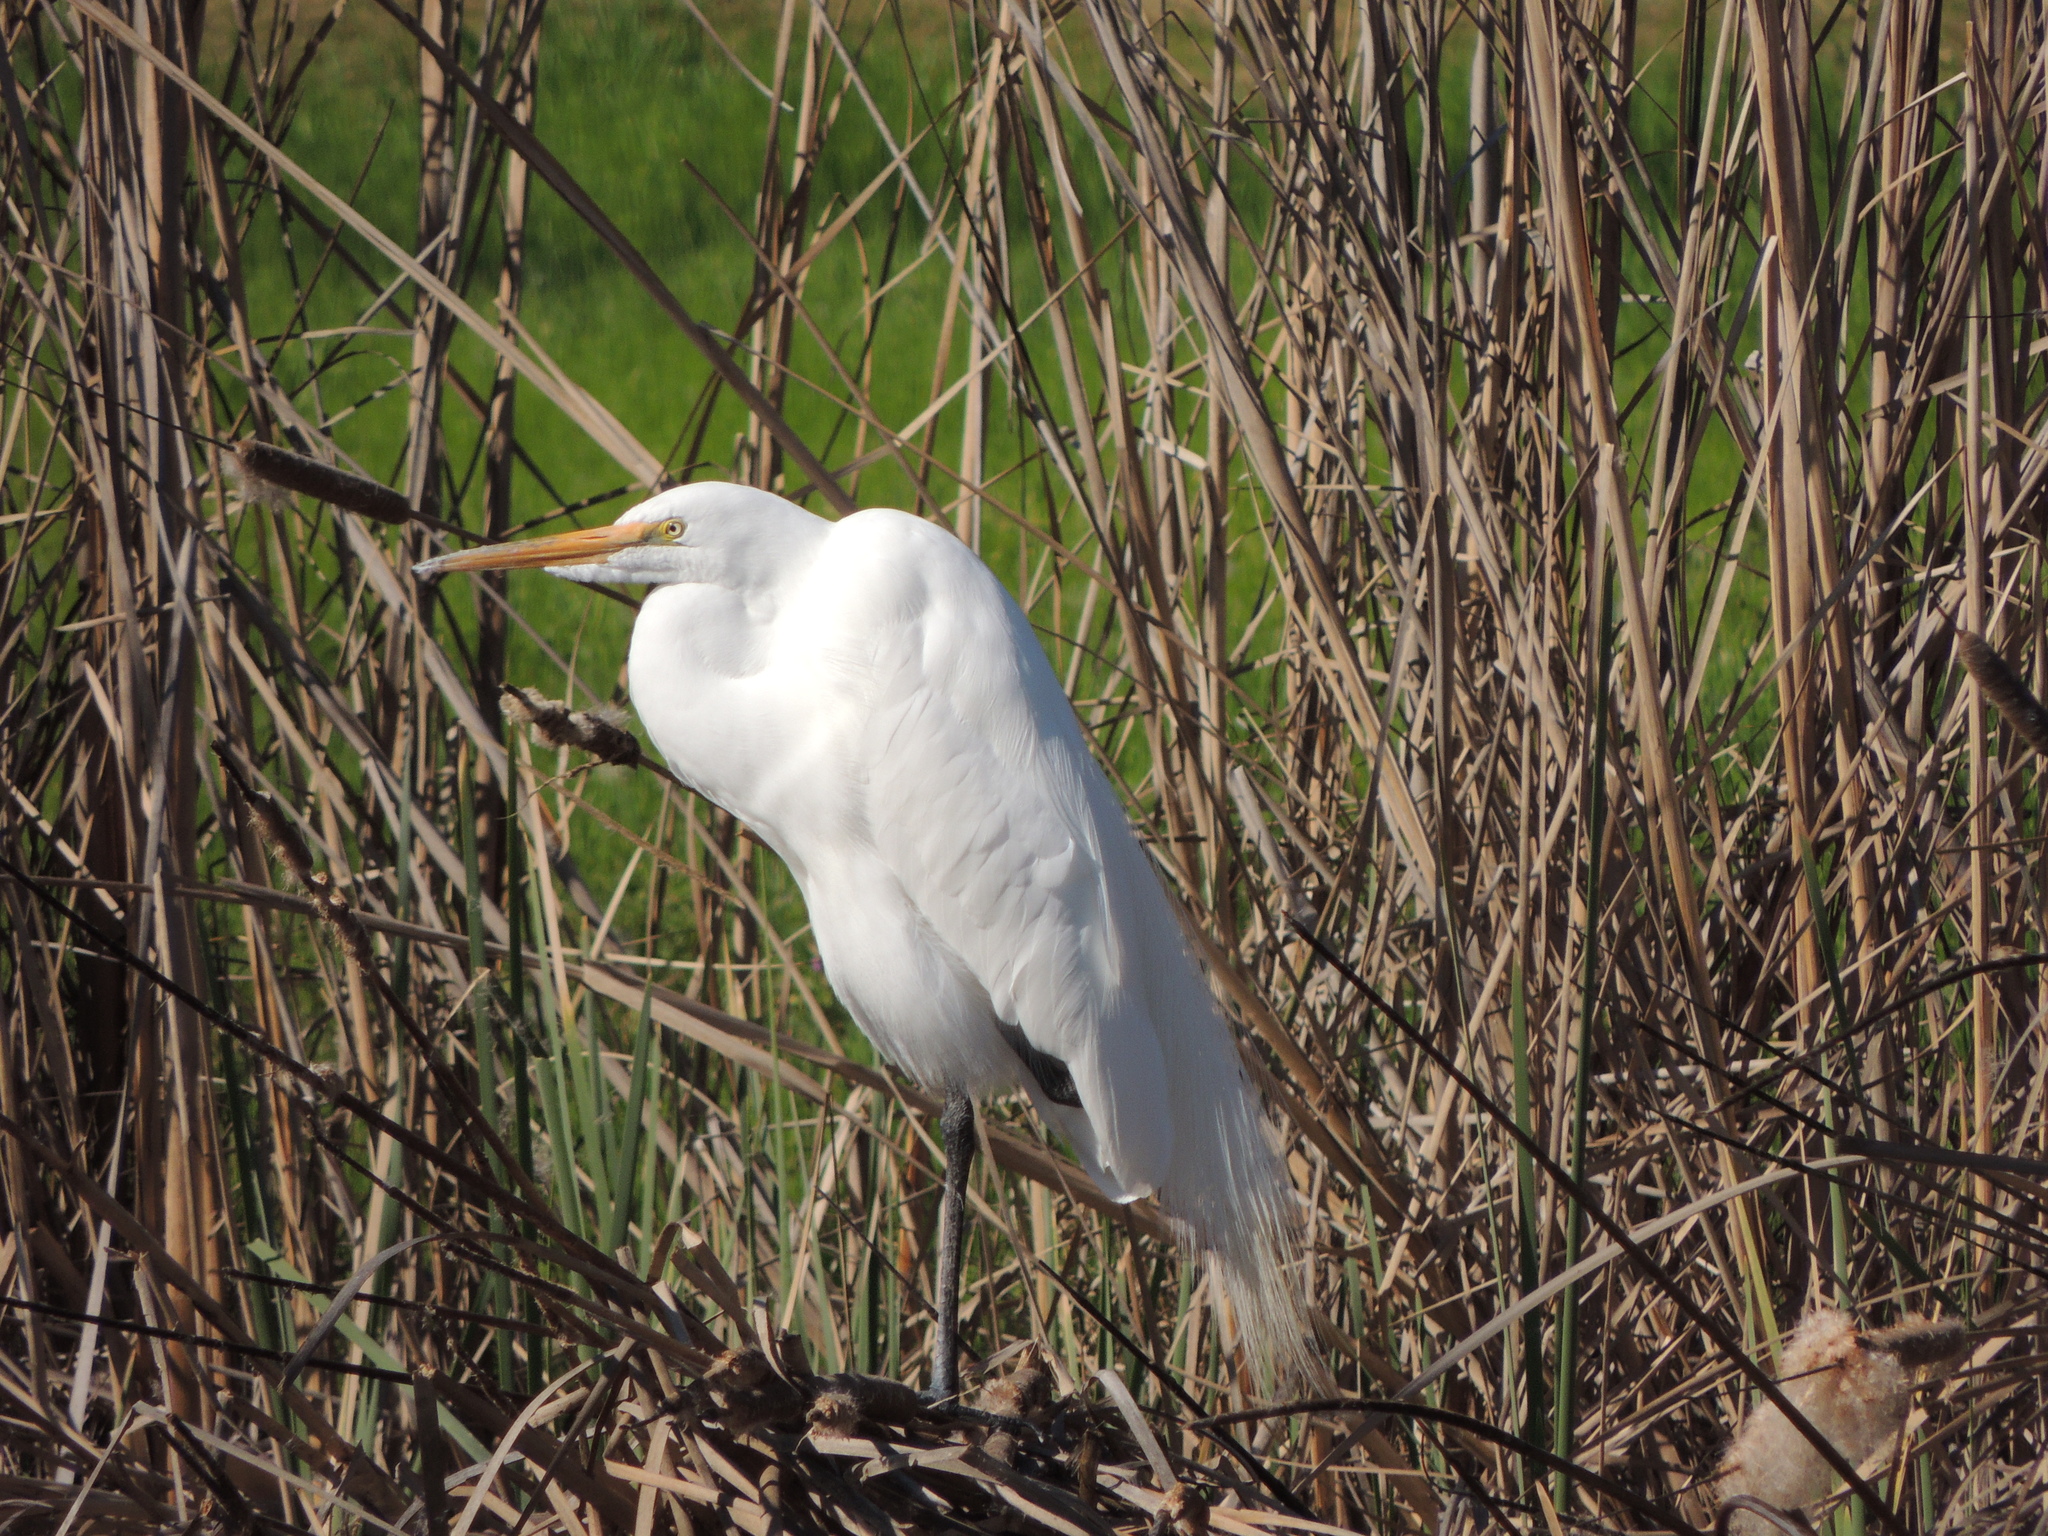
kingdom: Animalia
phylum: Chordata
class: Aves
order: Pelecaniformes
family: Ardeidae
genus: Ardea
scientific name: Ardea alba
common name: Great egret
